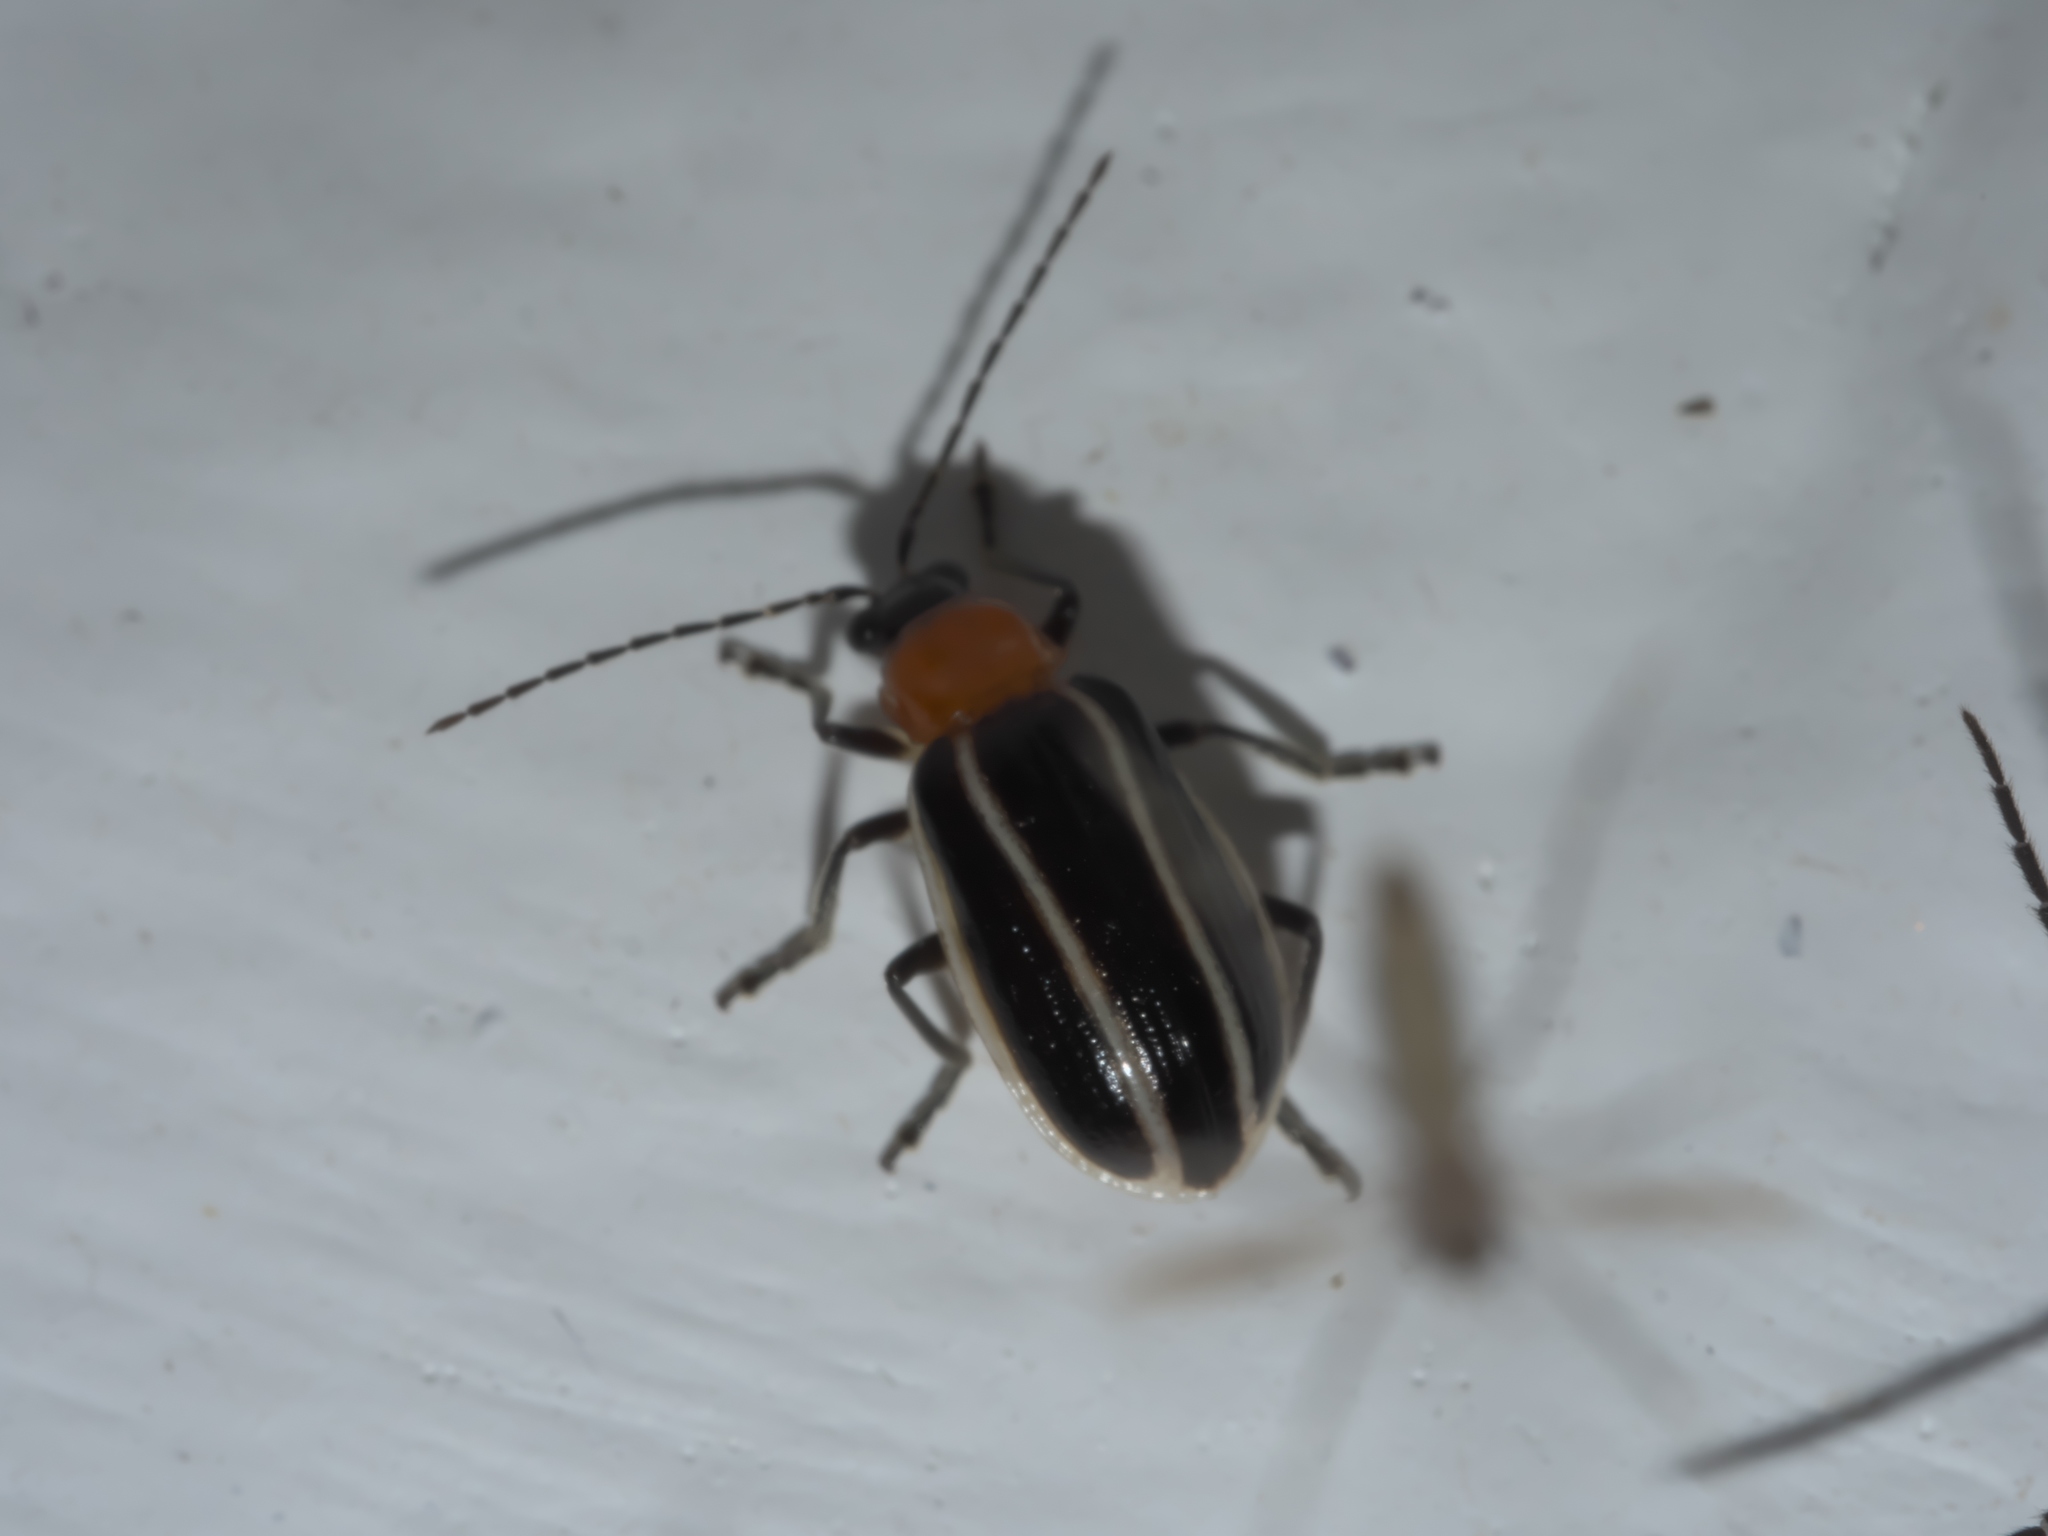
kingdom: Animalia
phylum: Arthropoda
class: Insecta
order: Coleoptera
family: Chrysomelidae
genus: Acalymma
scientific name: Acalymma vinctum
